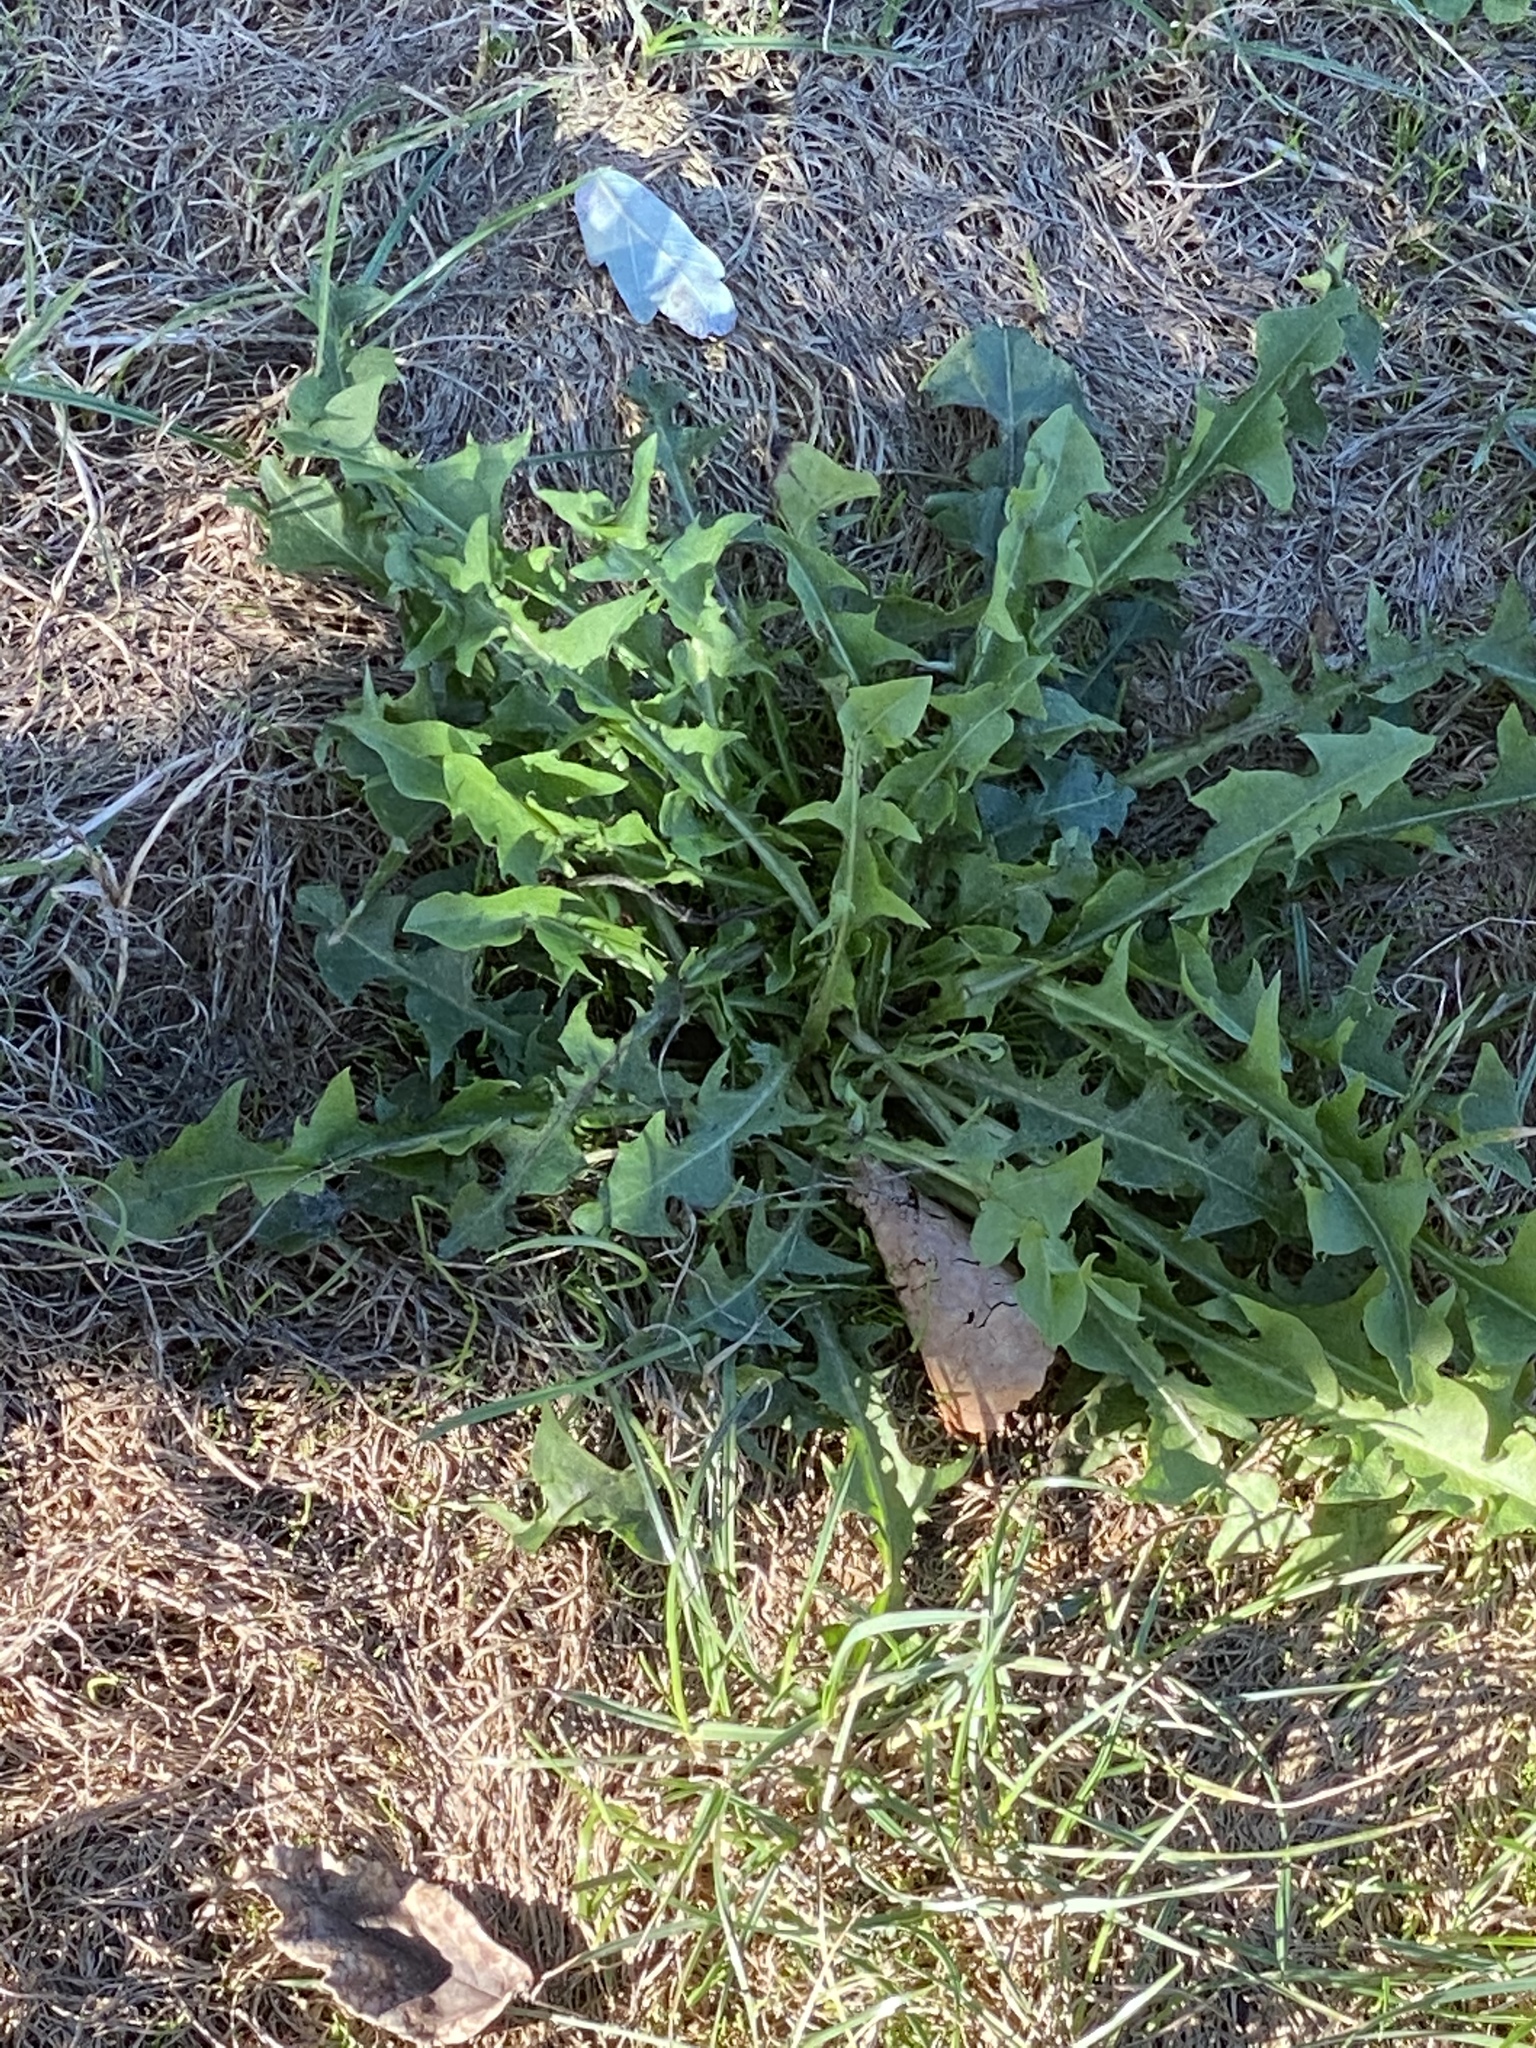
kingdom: Plantae
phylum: Tracheophyta
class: Magnoliopsida
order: Asterales
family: Asteraceae
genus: Taraxacum
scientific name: Taraxacum officinale
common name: Common dandelion
